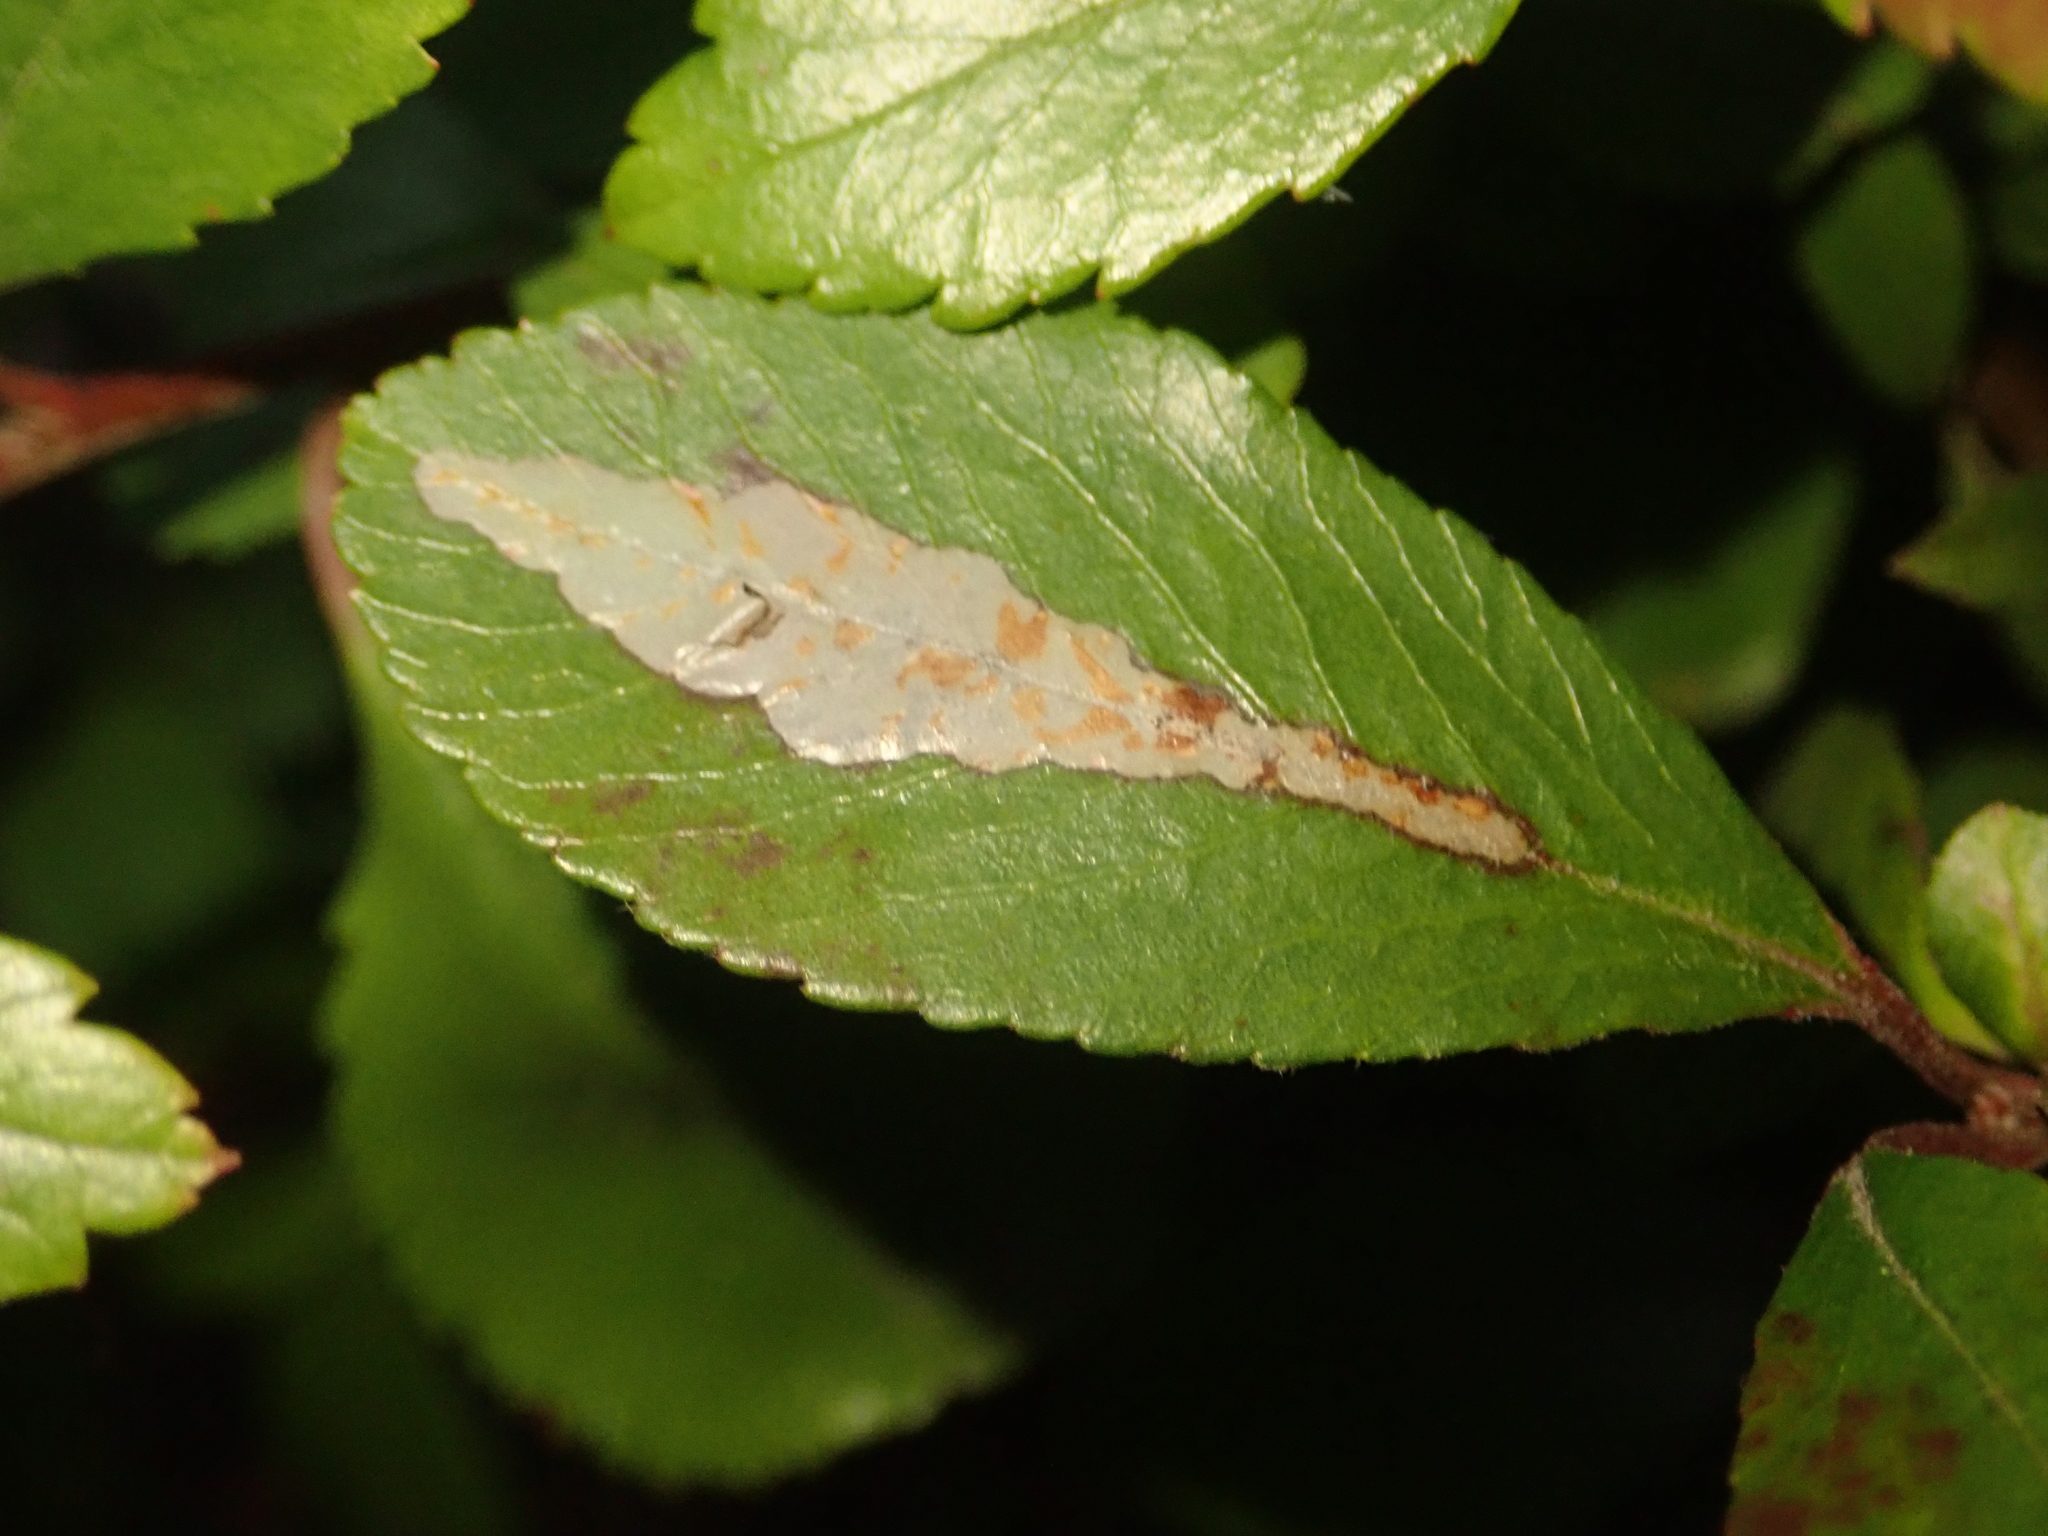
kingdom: Animalia
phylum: Arthropoda
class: Insecta
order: Lepidoptera
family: Gracillariidae
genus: Phyllonorycter
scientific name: Phyllonorycter leucographella
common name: Firethorn leaf-miner
